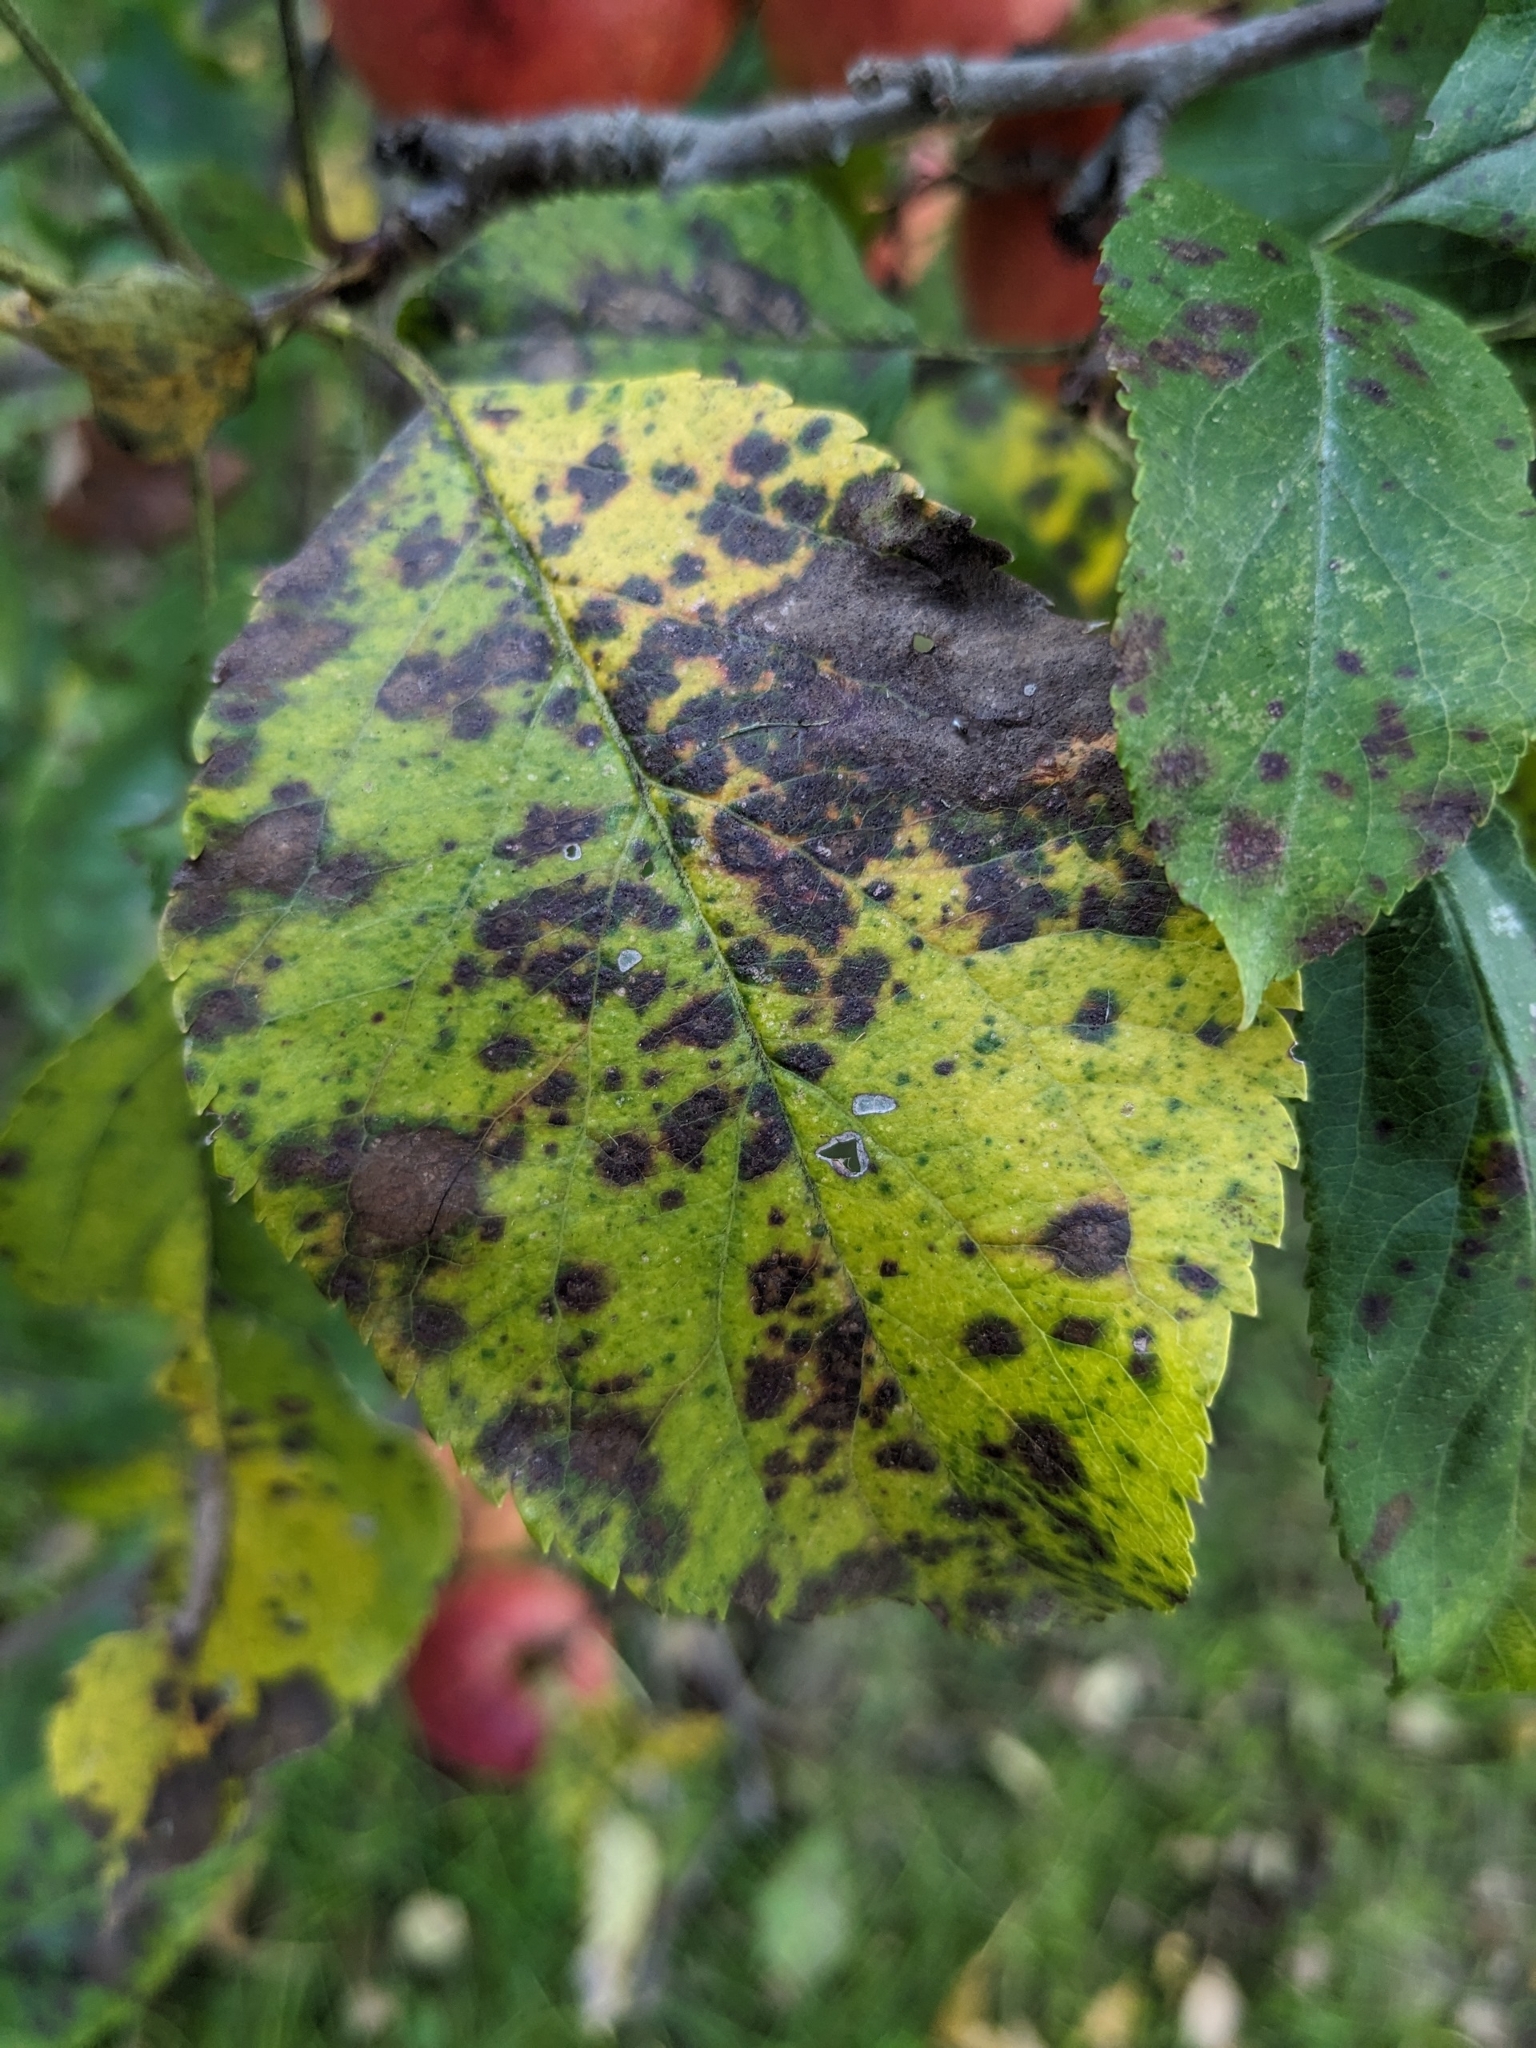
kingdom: Fungi
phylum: Ascomycota
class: Dothideomycetes
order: Venturiales
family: Venturiaceae
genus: Venturia
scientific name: Venturia inaequalis
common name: Apple scab
